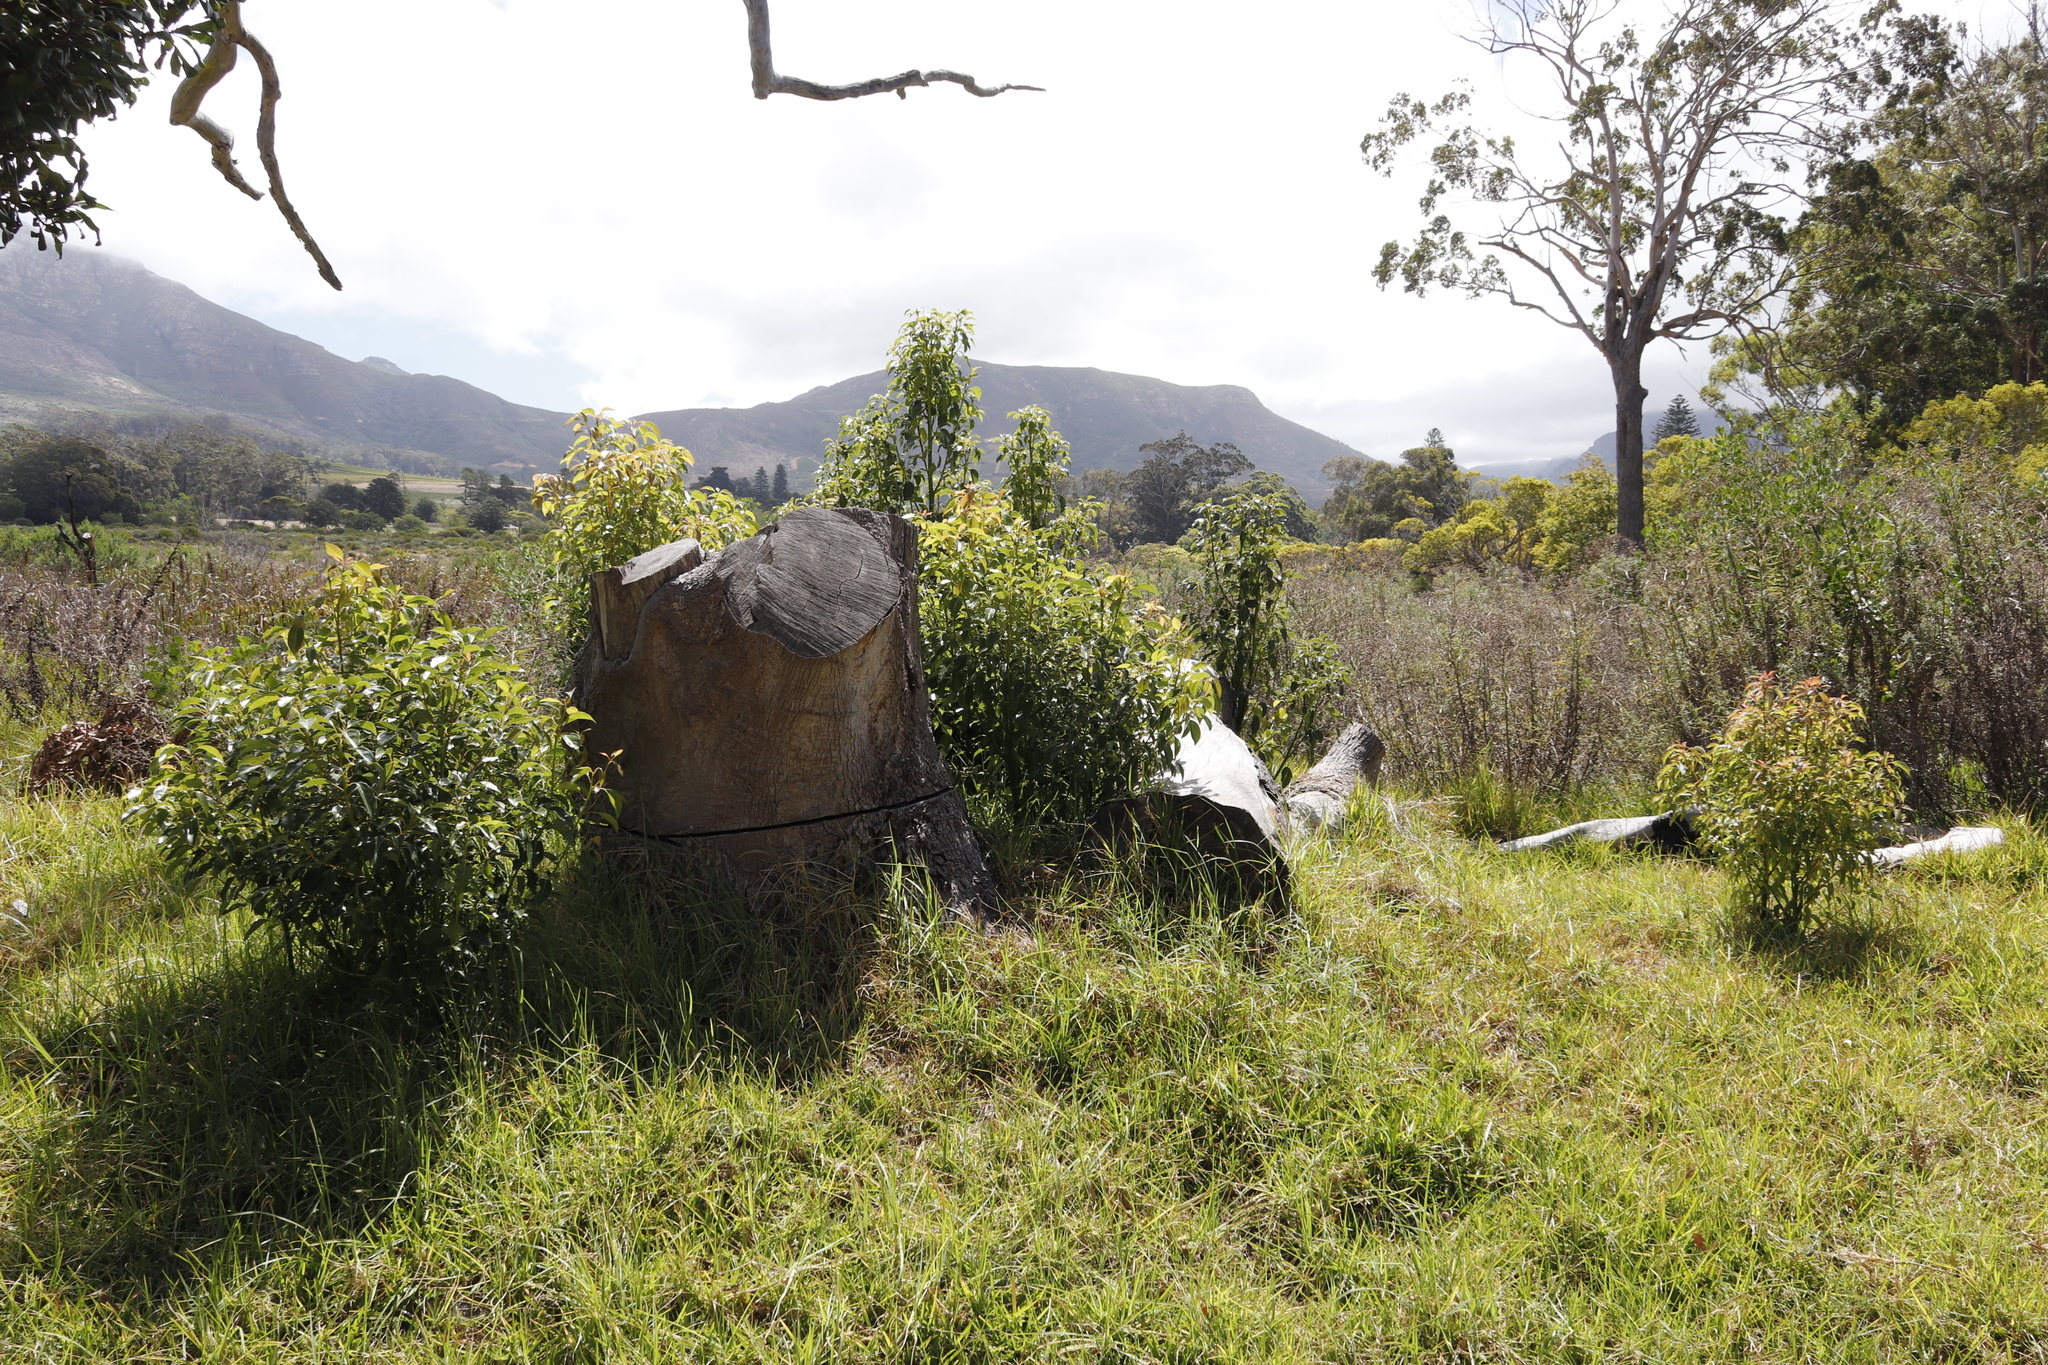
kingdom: Plantae
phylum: Tracheophyta
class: Magnoliopsida
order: Laurales
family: Lauraceae
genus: Cinnamomum
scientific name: Cinnamomum camphora
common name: Camphortree
